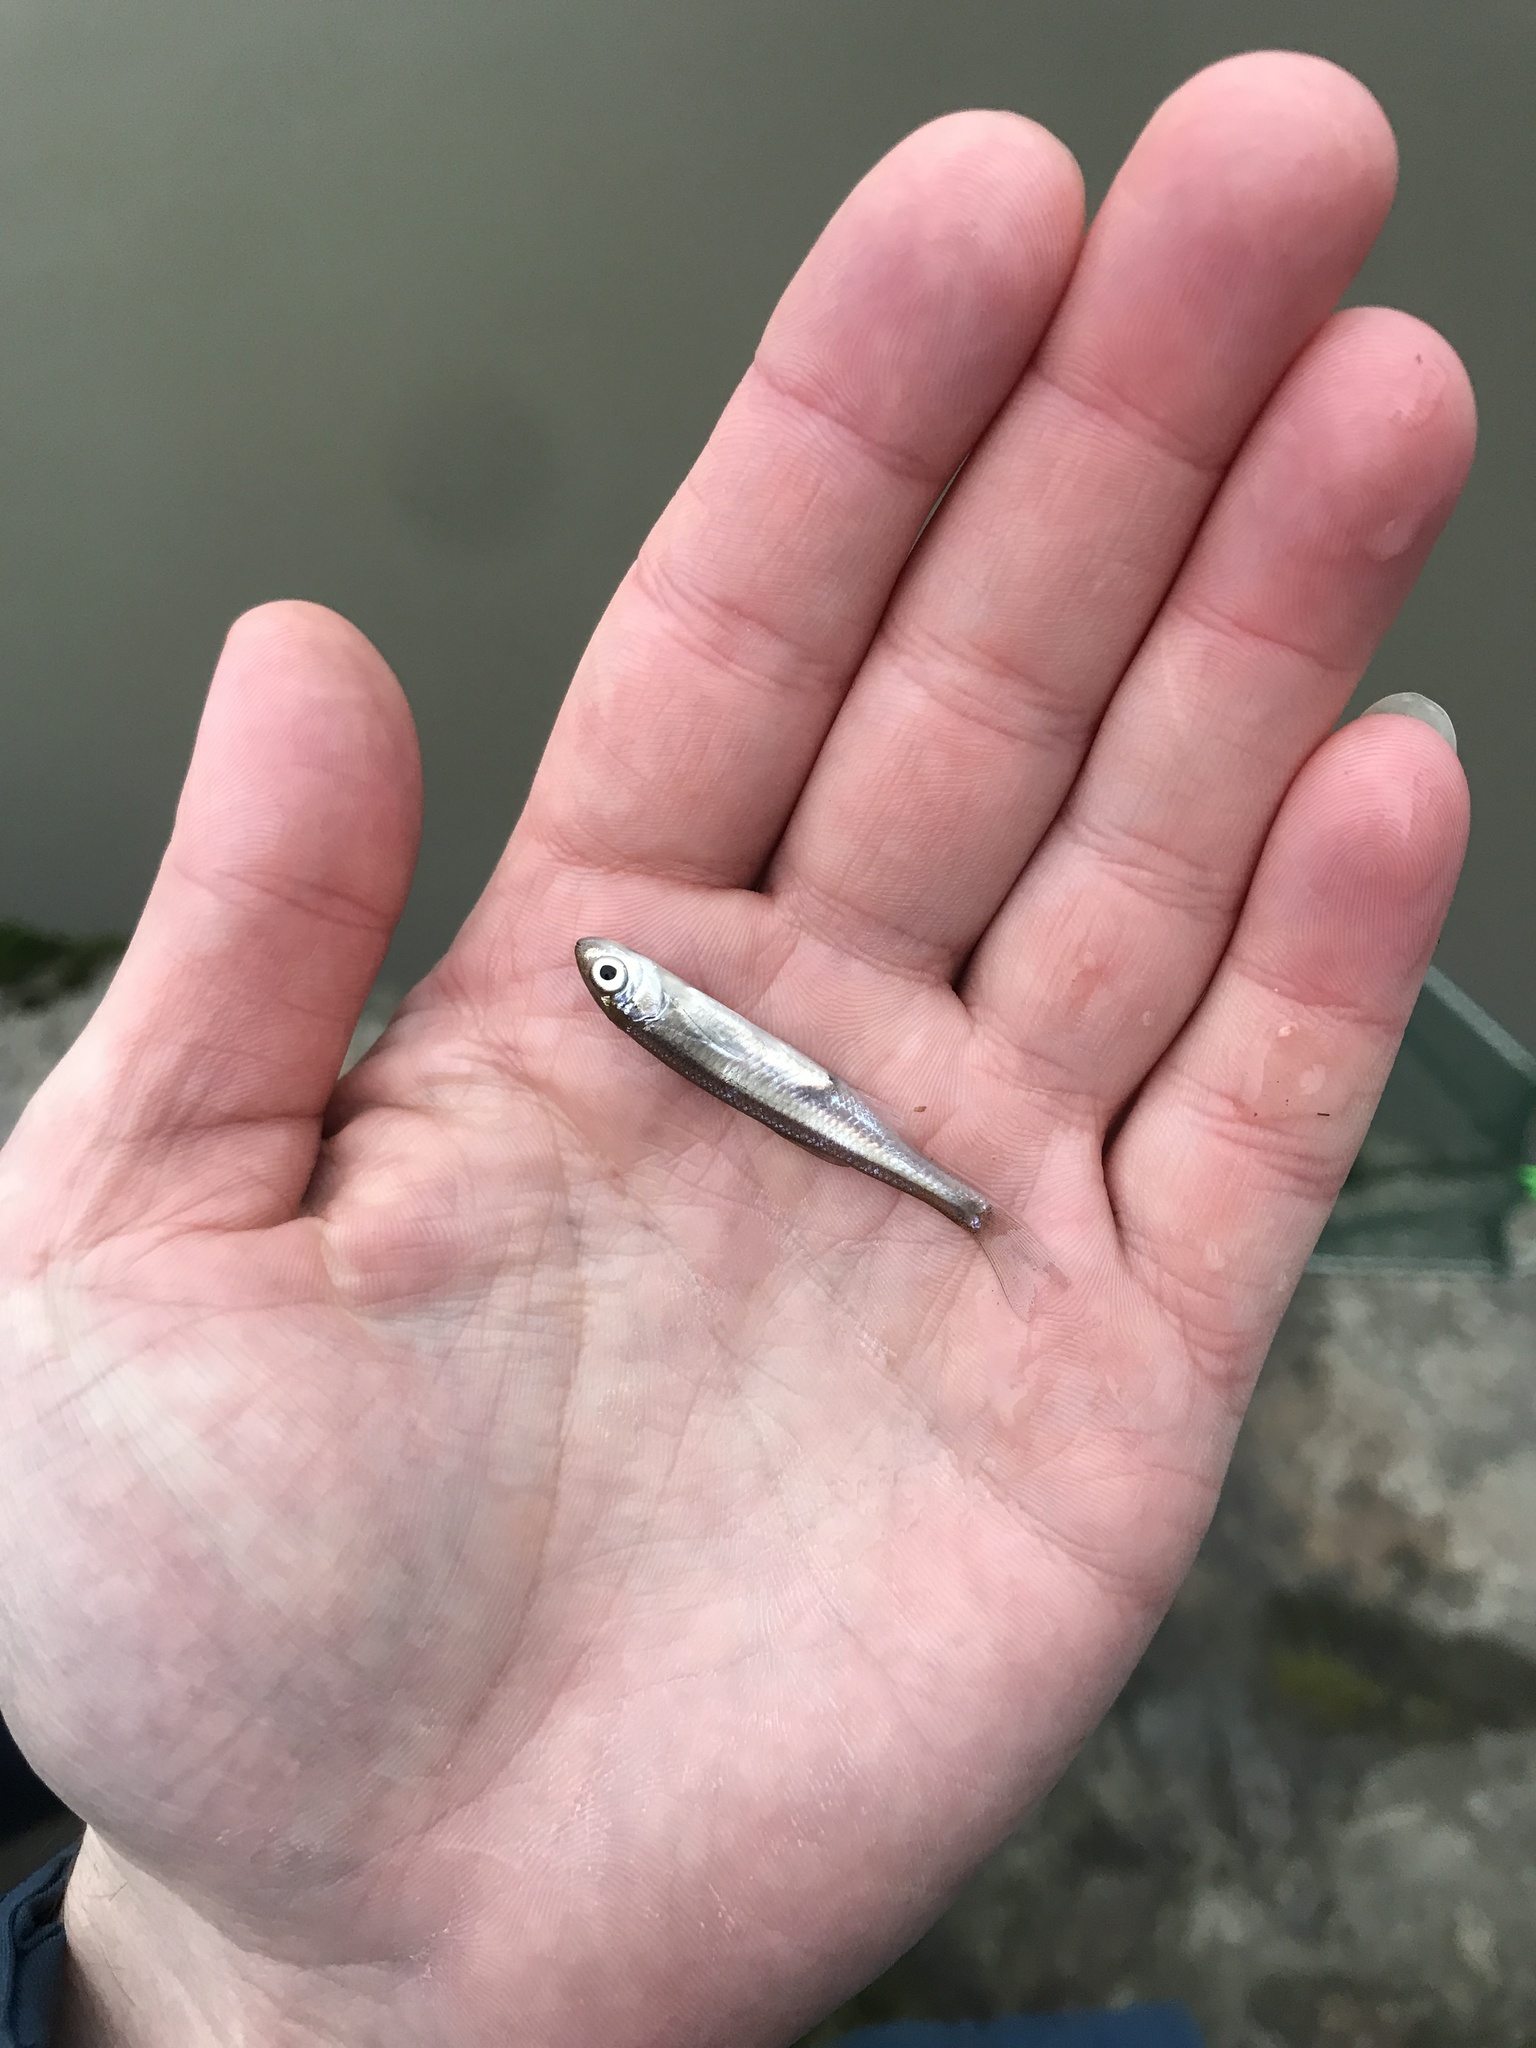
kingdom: Animalia
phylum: Chordata
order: Cypriniformes
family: Cyprinidae
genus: Alburnus
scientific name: Alburnus alburnus
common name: Bleak
